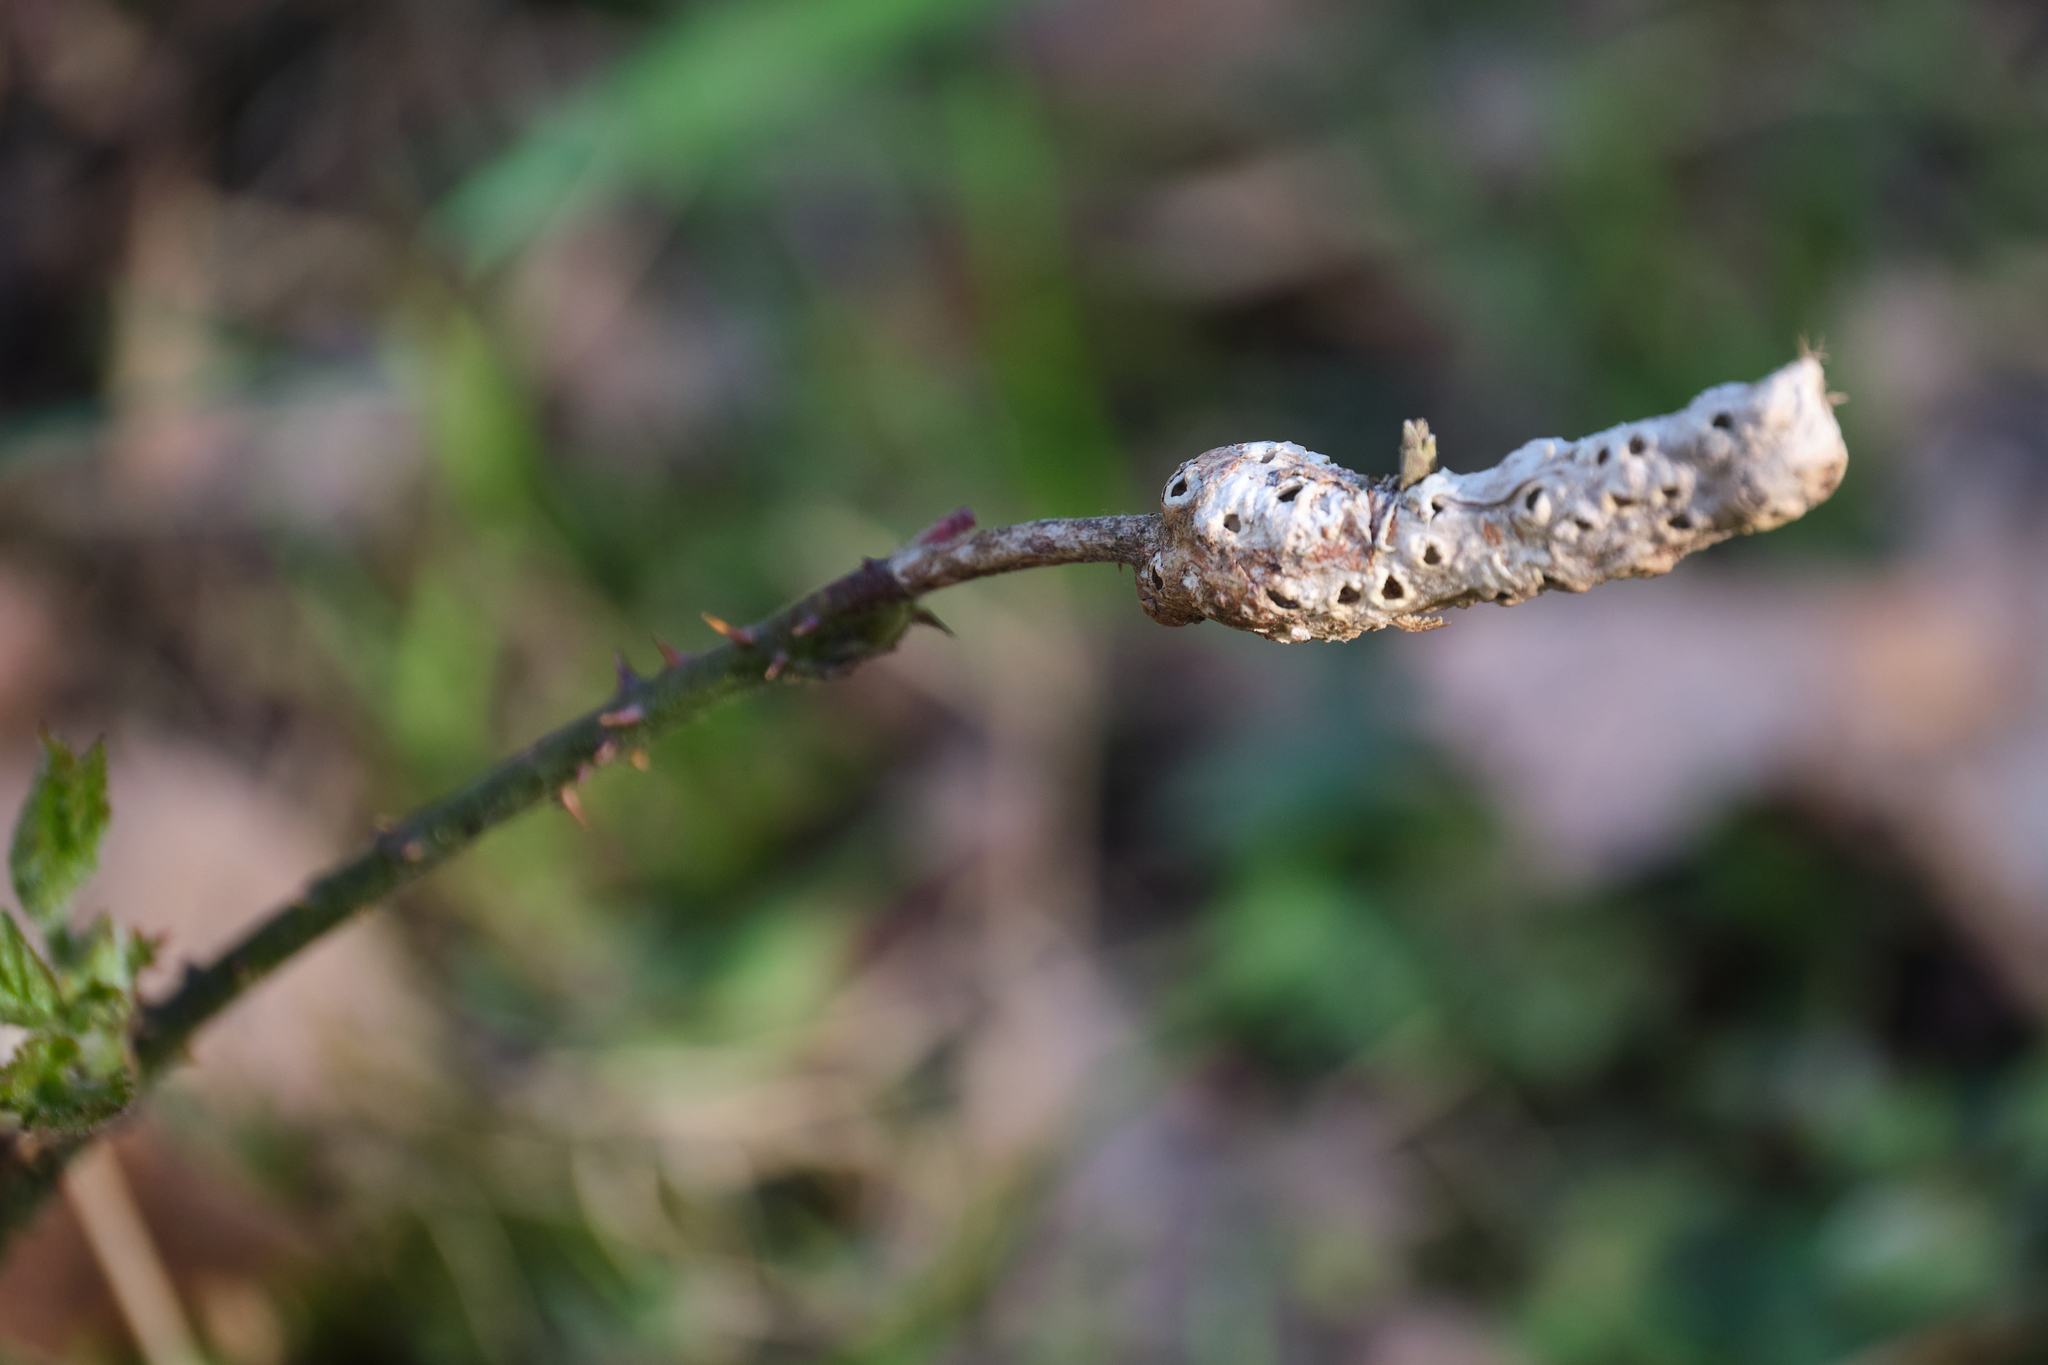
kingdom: Animalia
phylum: Arthropoda
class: Insecta
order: Hymenoptera
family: Cynipidae
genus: Diastrophus
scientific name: Diastrophus rubi
